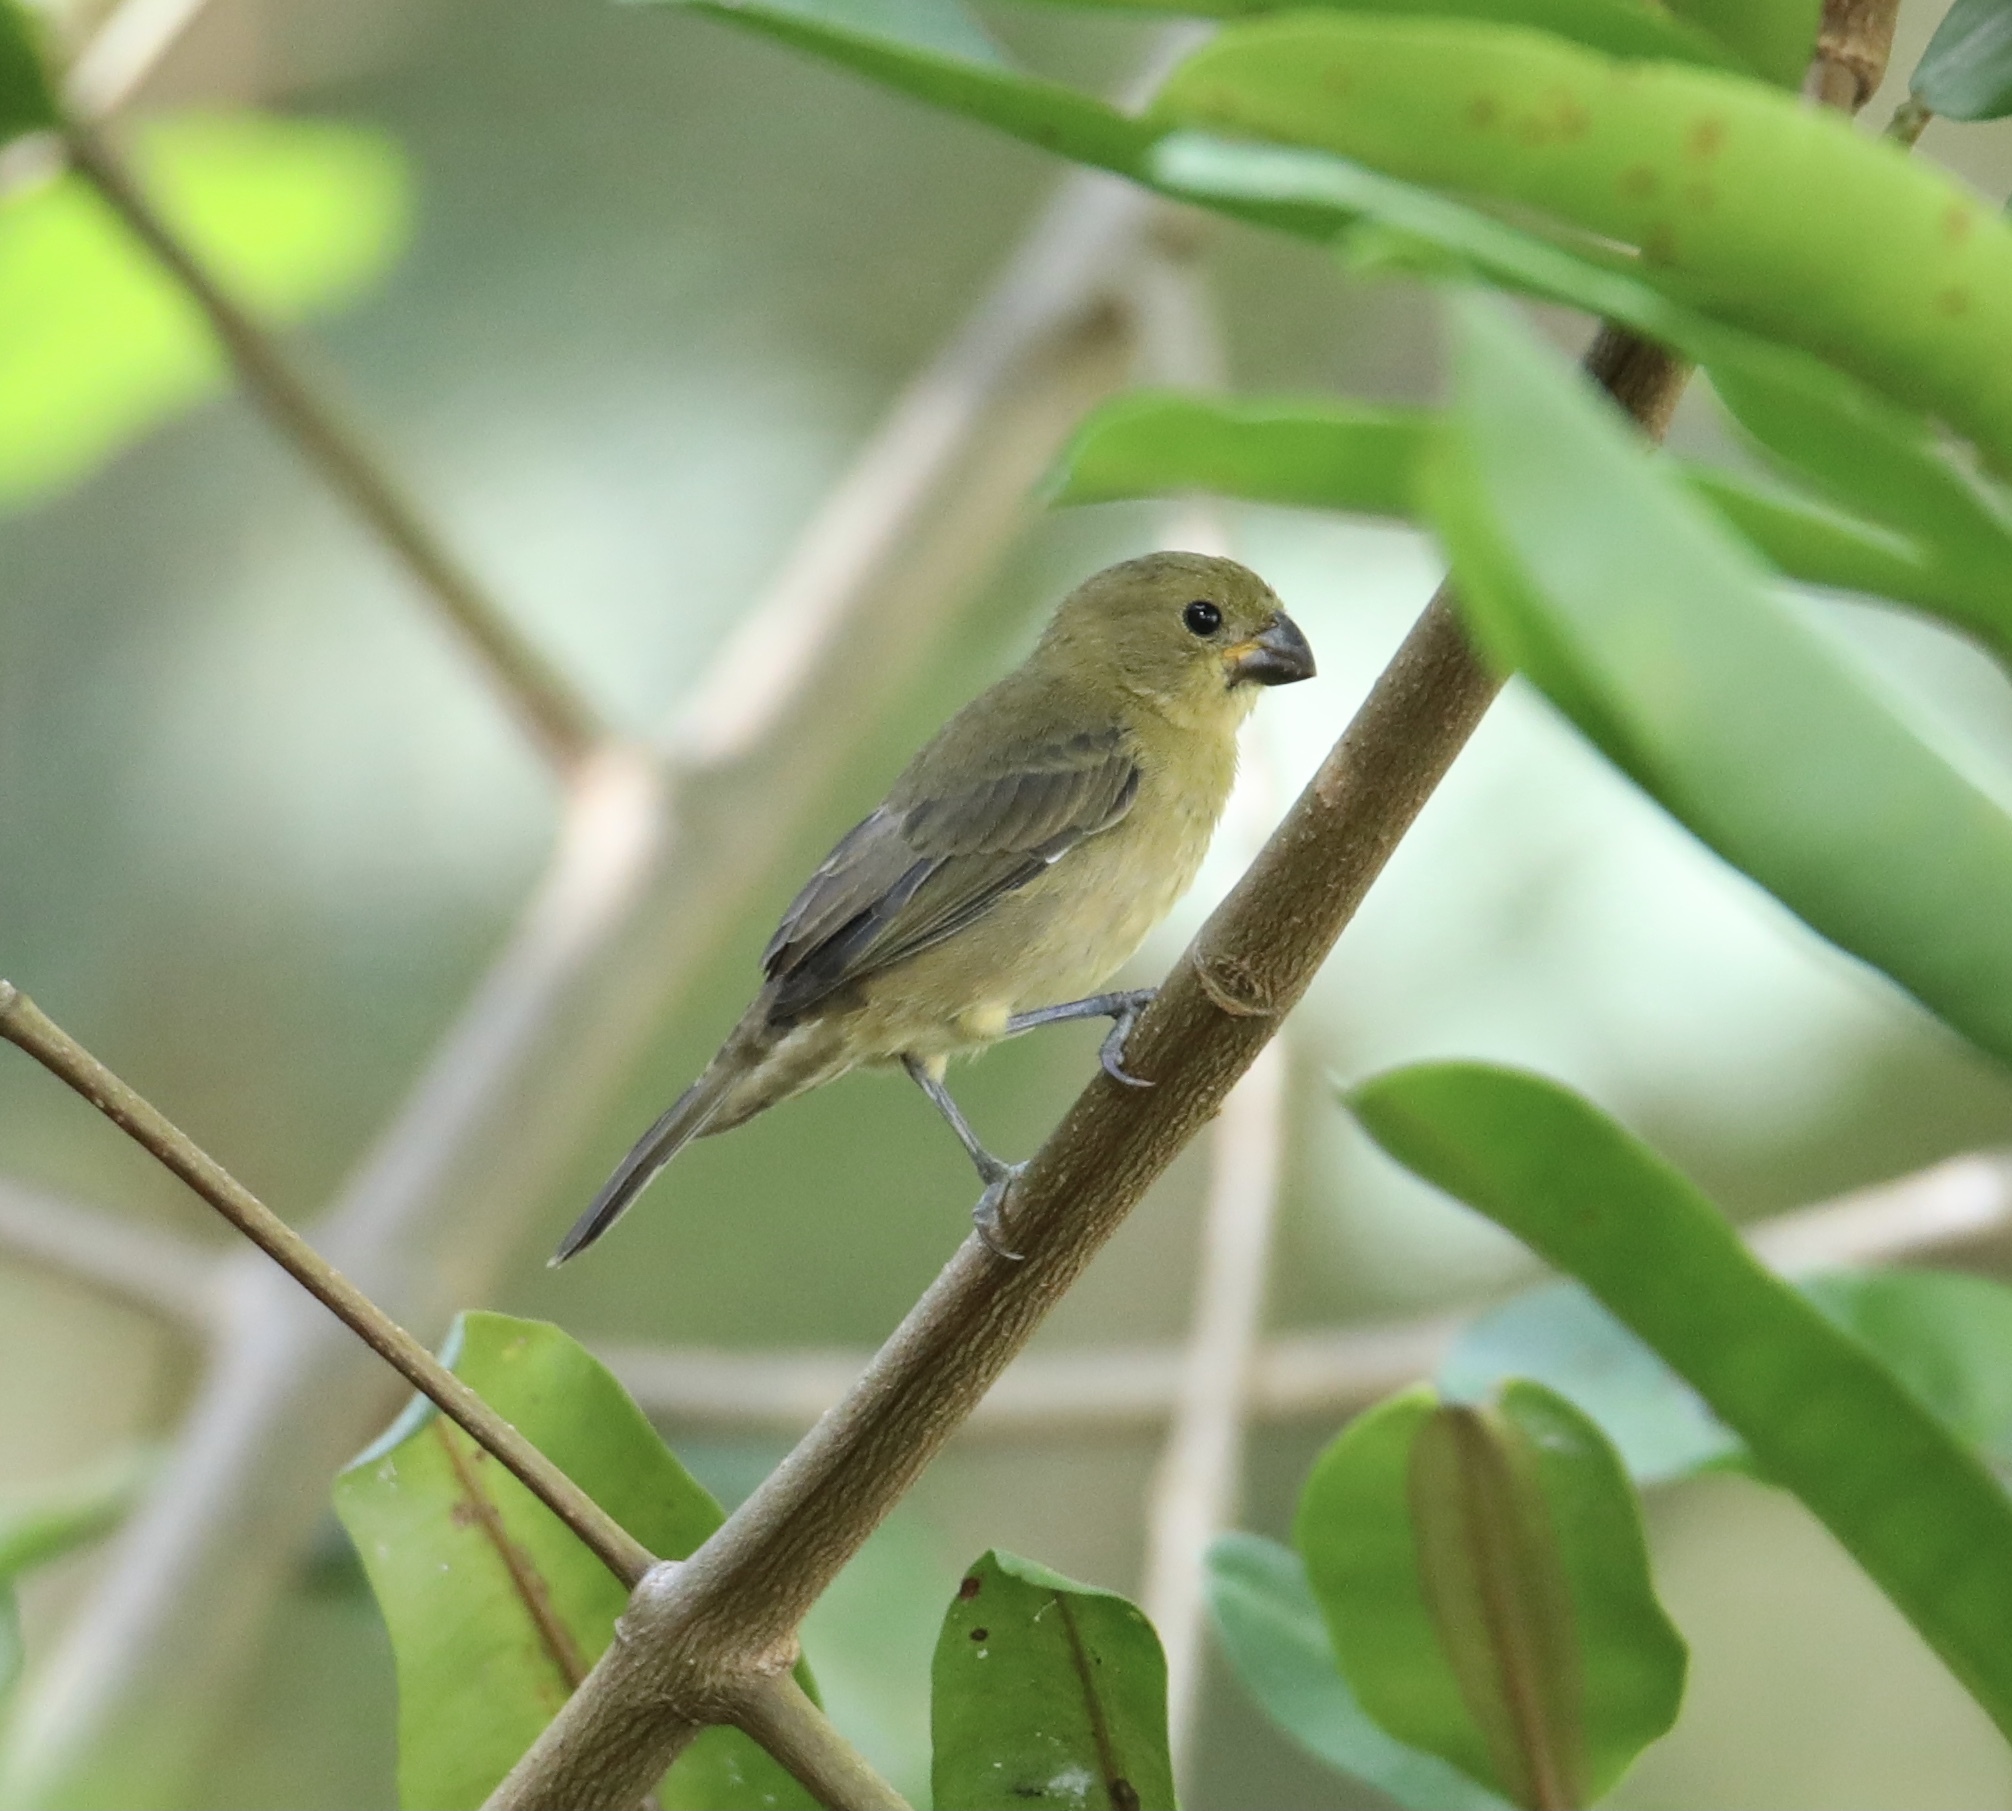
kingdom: Animalia
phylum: Chordata
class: Aves
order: Passeriformes
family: Thraupidae
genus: Sporophila
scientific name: Sporophila corvina
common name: Variable seedeater
